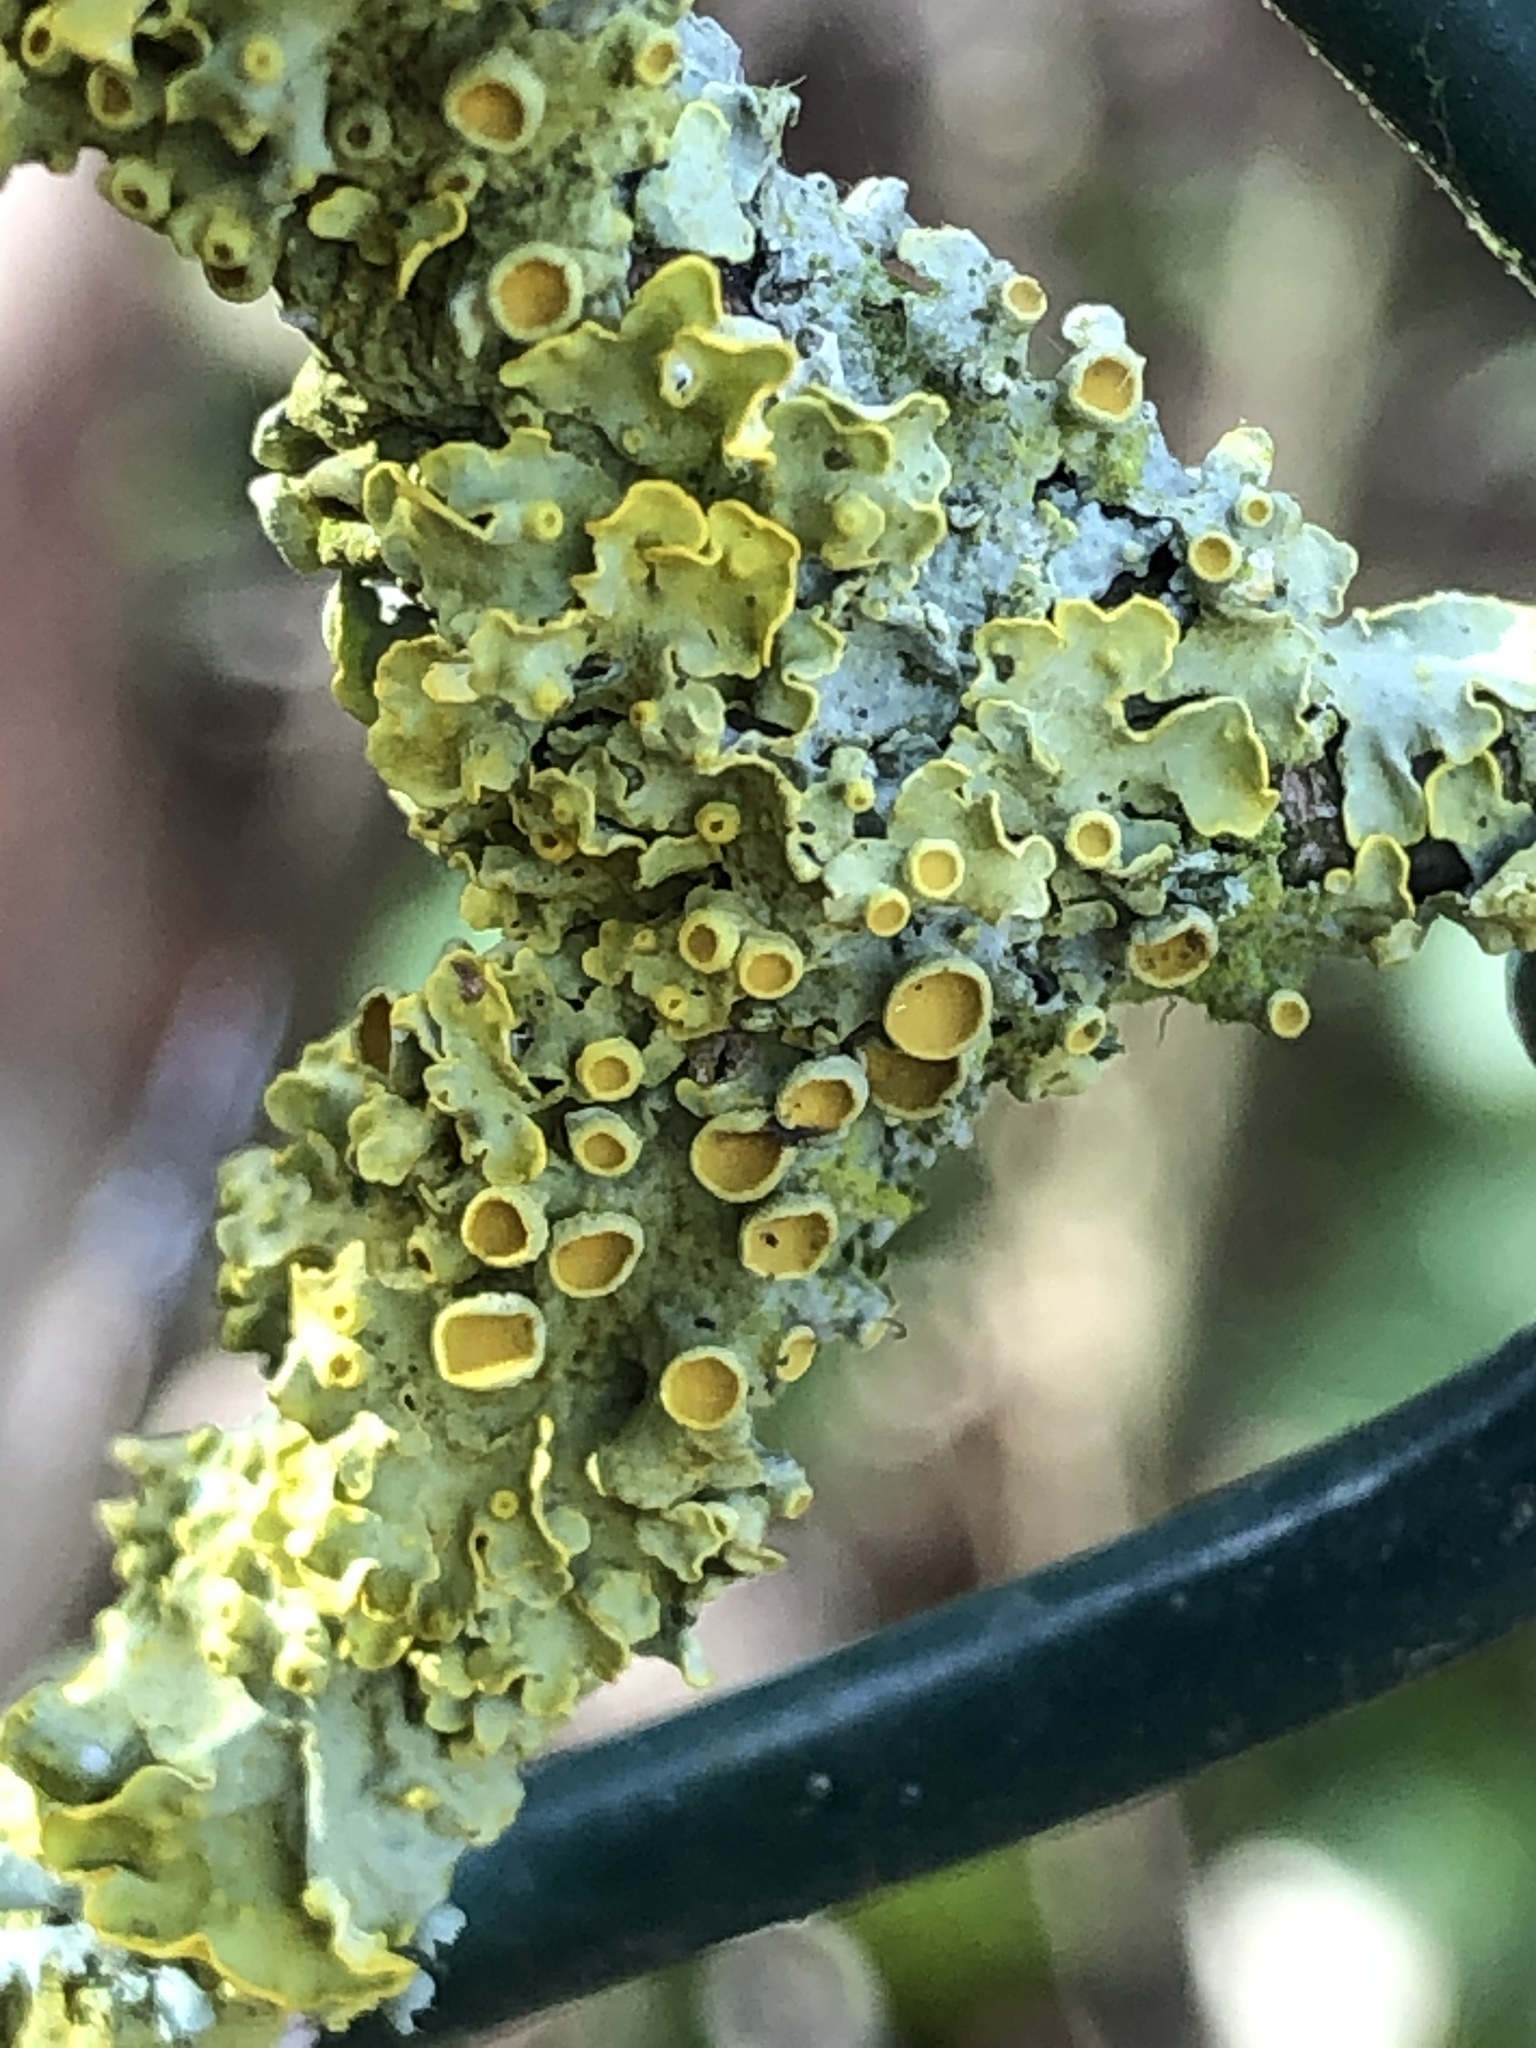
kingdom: Fungi
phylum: Ascomycota
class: Lecanoromycetes
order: Teloschistales
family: Teloschistaceae
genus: Xanthoria
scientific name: Xanthoria parietina
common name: Common orange lichen
